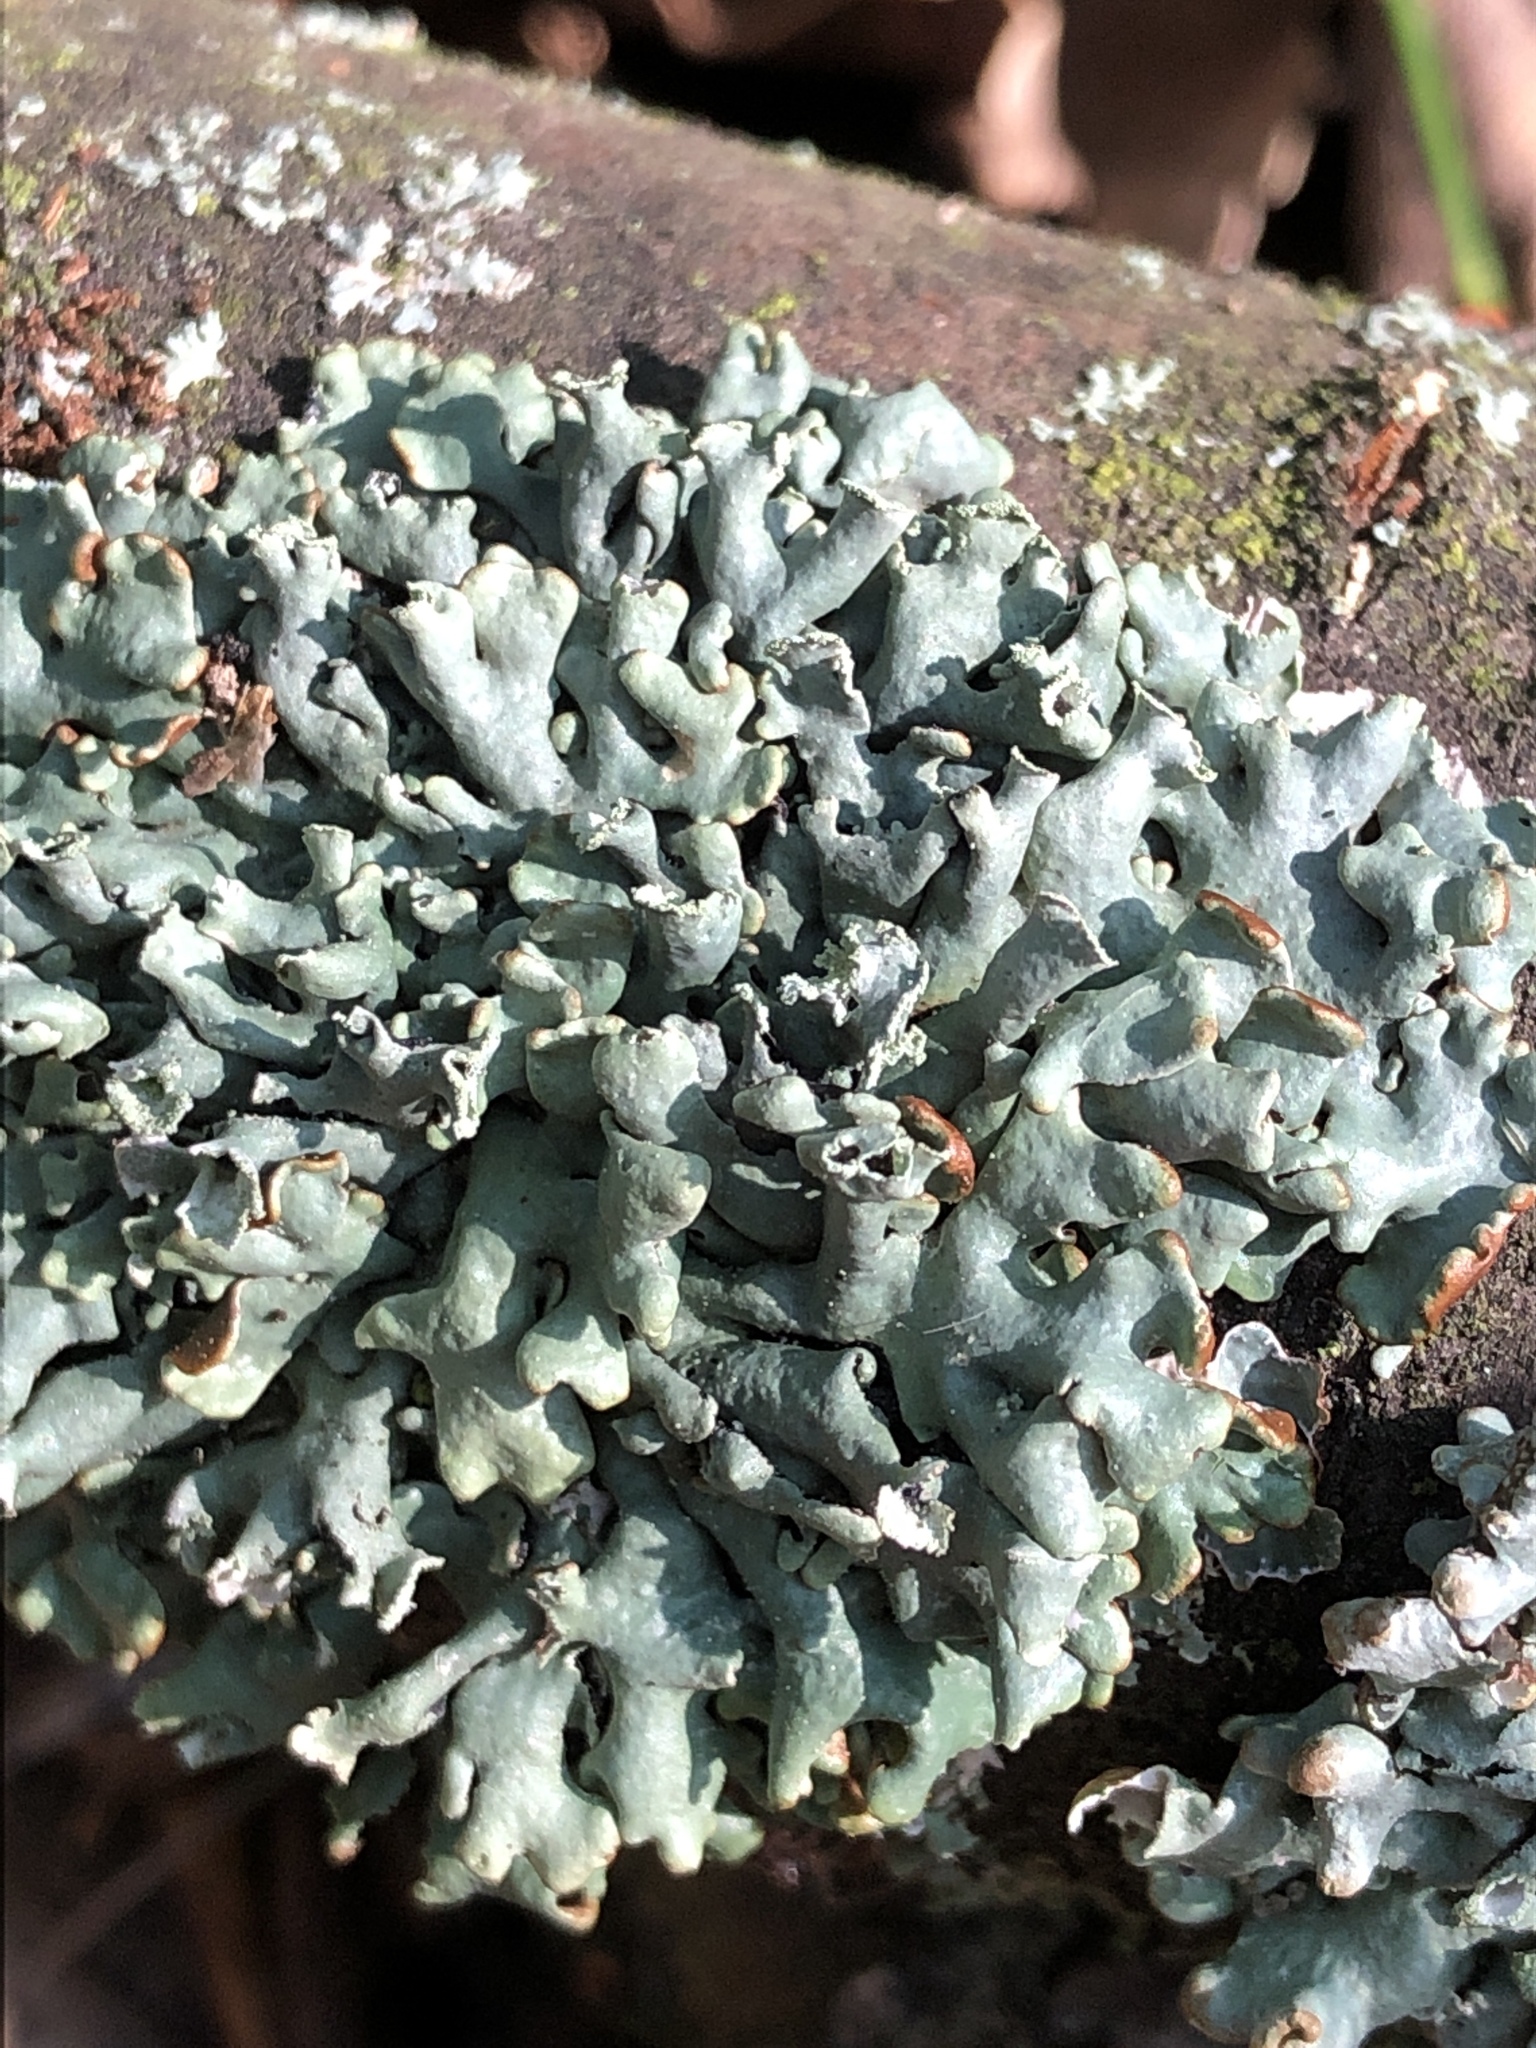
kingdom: Fungi
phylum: Ascomycota
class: Lecanoromycetes
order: Lecanorales
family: Parmeliaceae
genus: Hypogymnia
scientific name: Hypogymnia physodes
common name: Dark crottle
